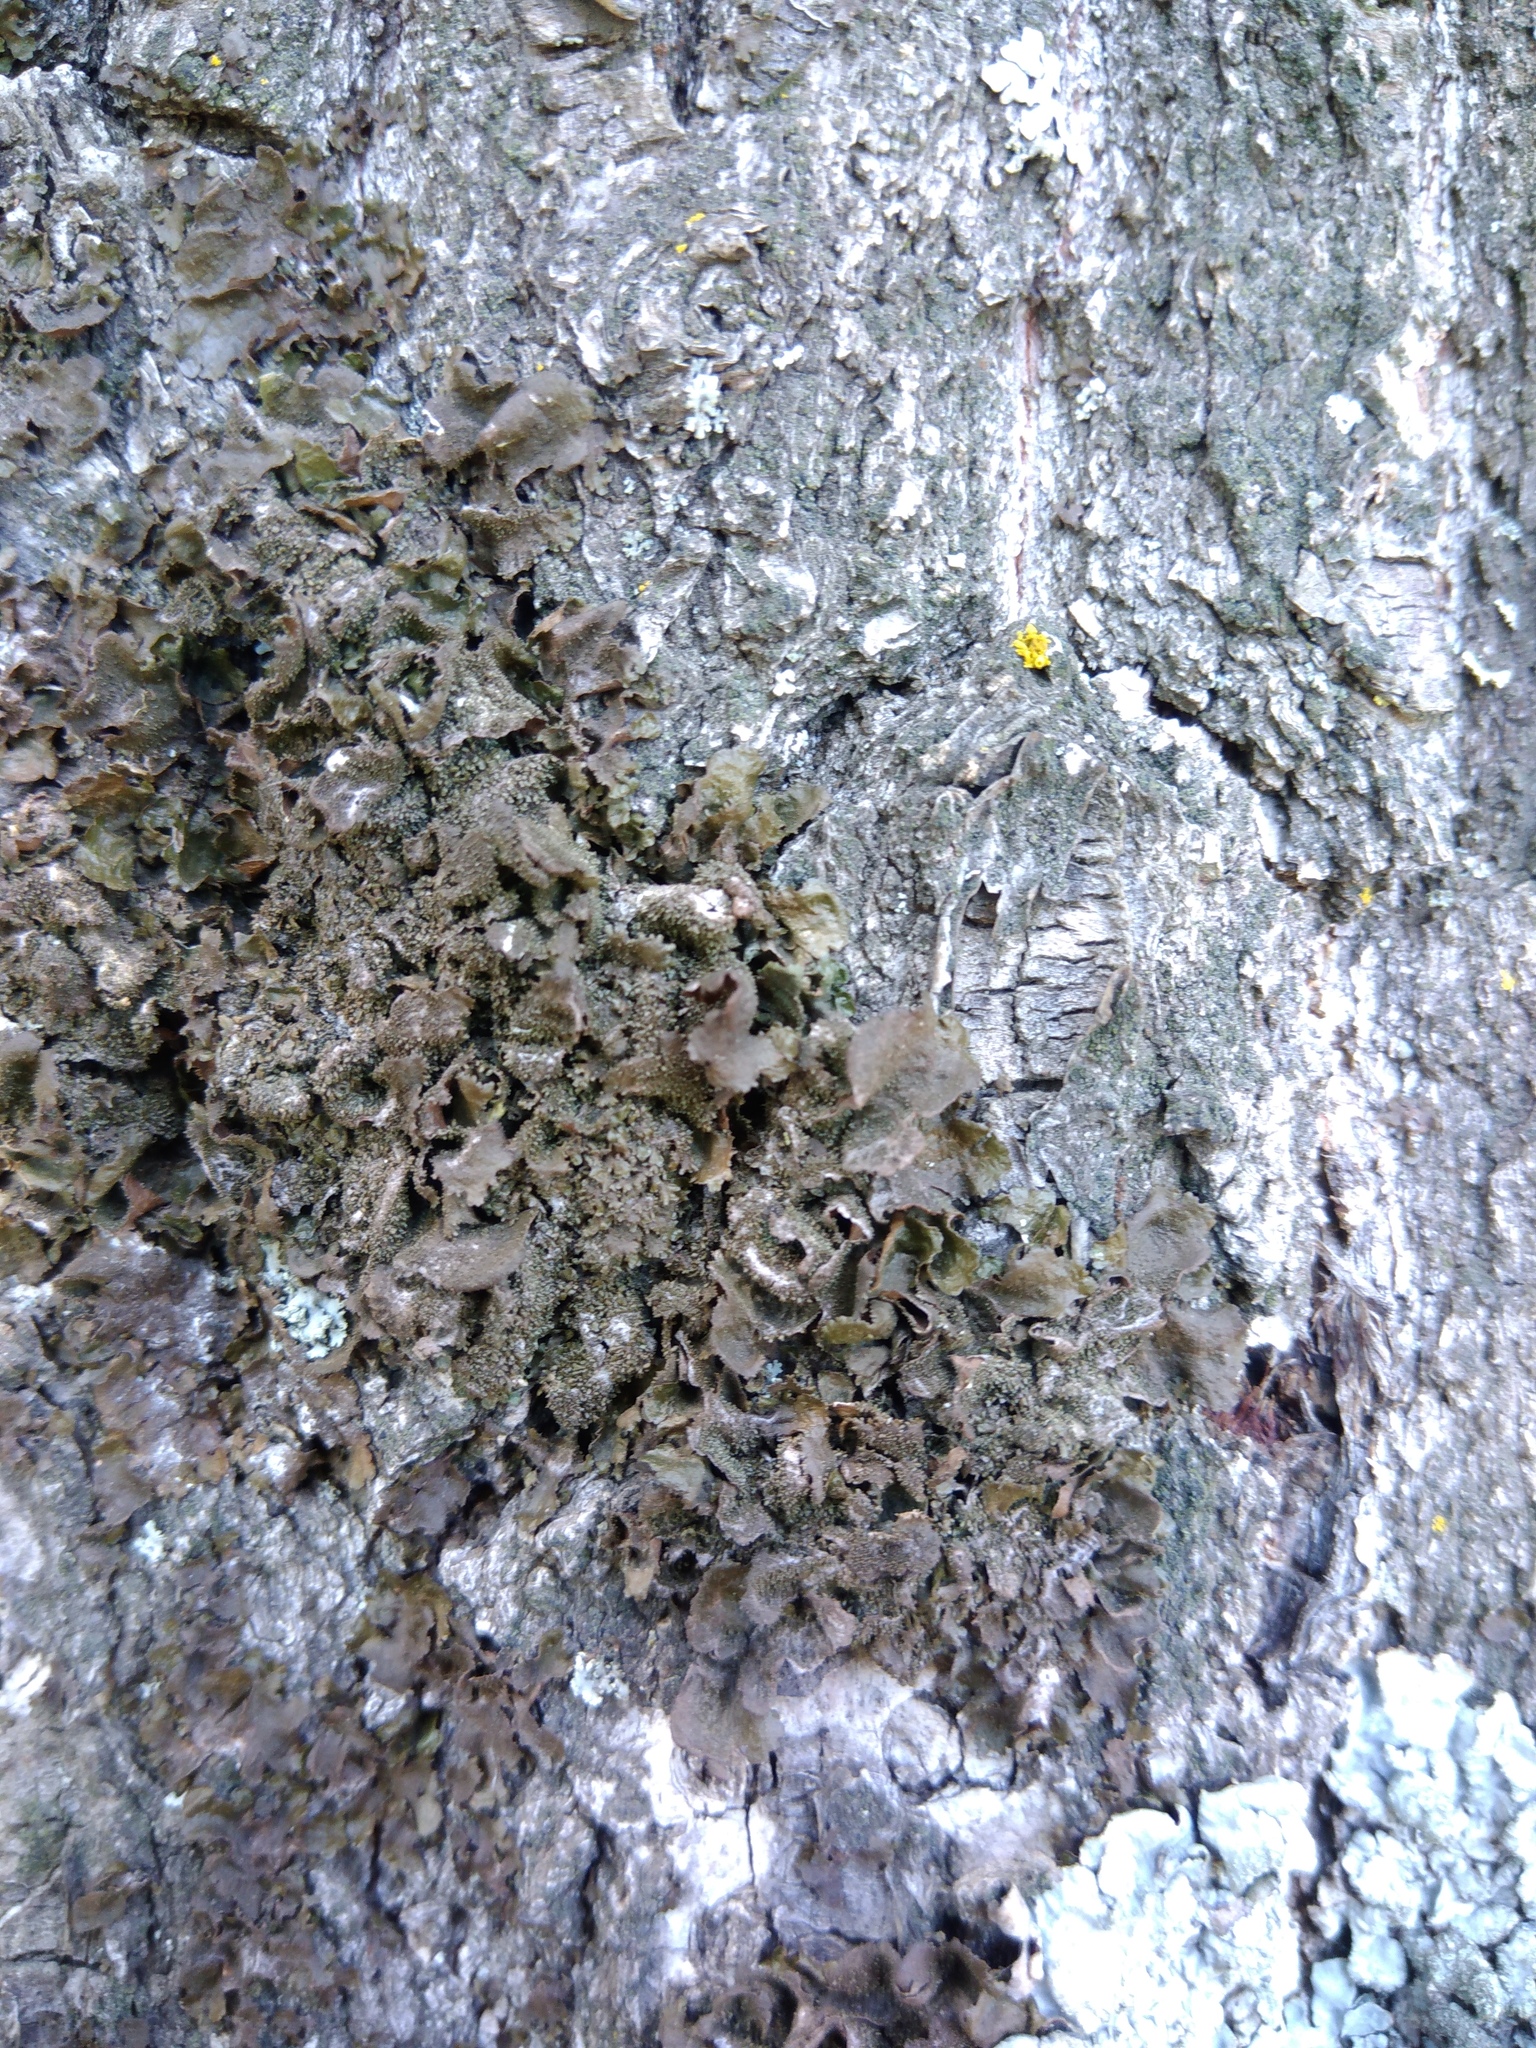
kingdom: Fungi
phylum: Ascomycota
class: Lecanoromycetes
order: Lecanorales
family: Parmeliaceae
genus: Melanohalea
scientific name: Melanohalea exasperatula
